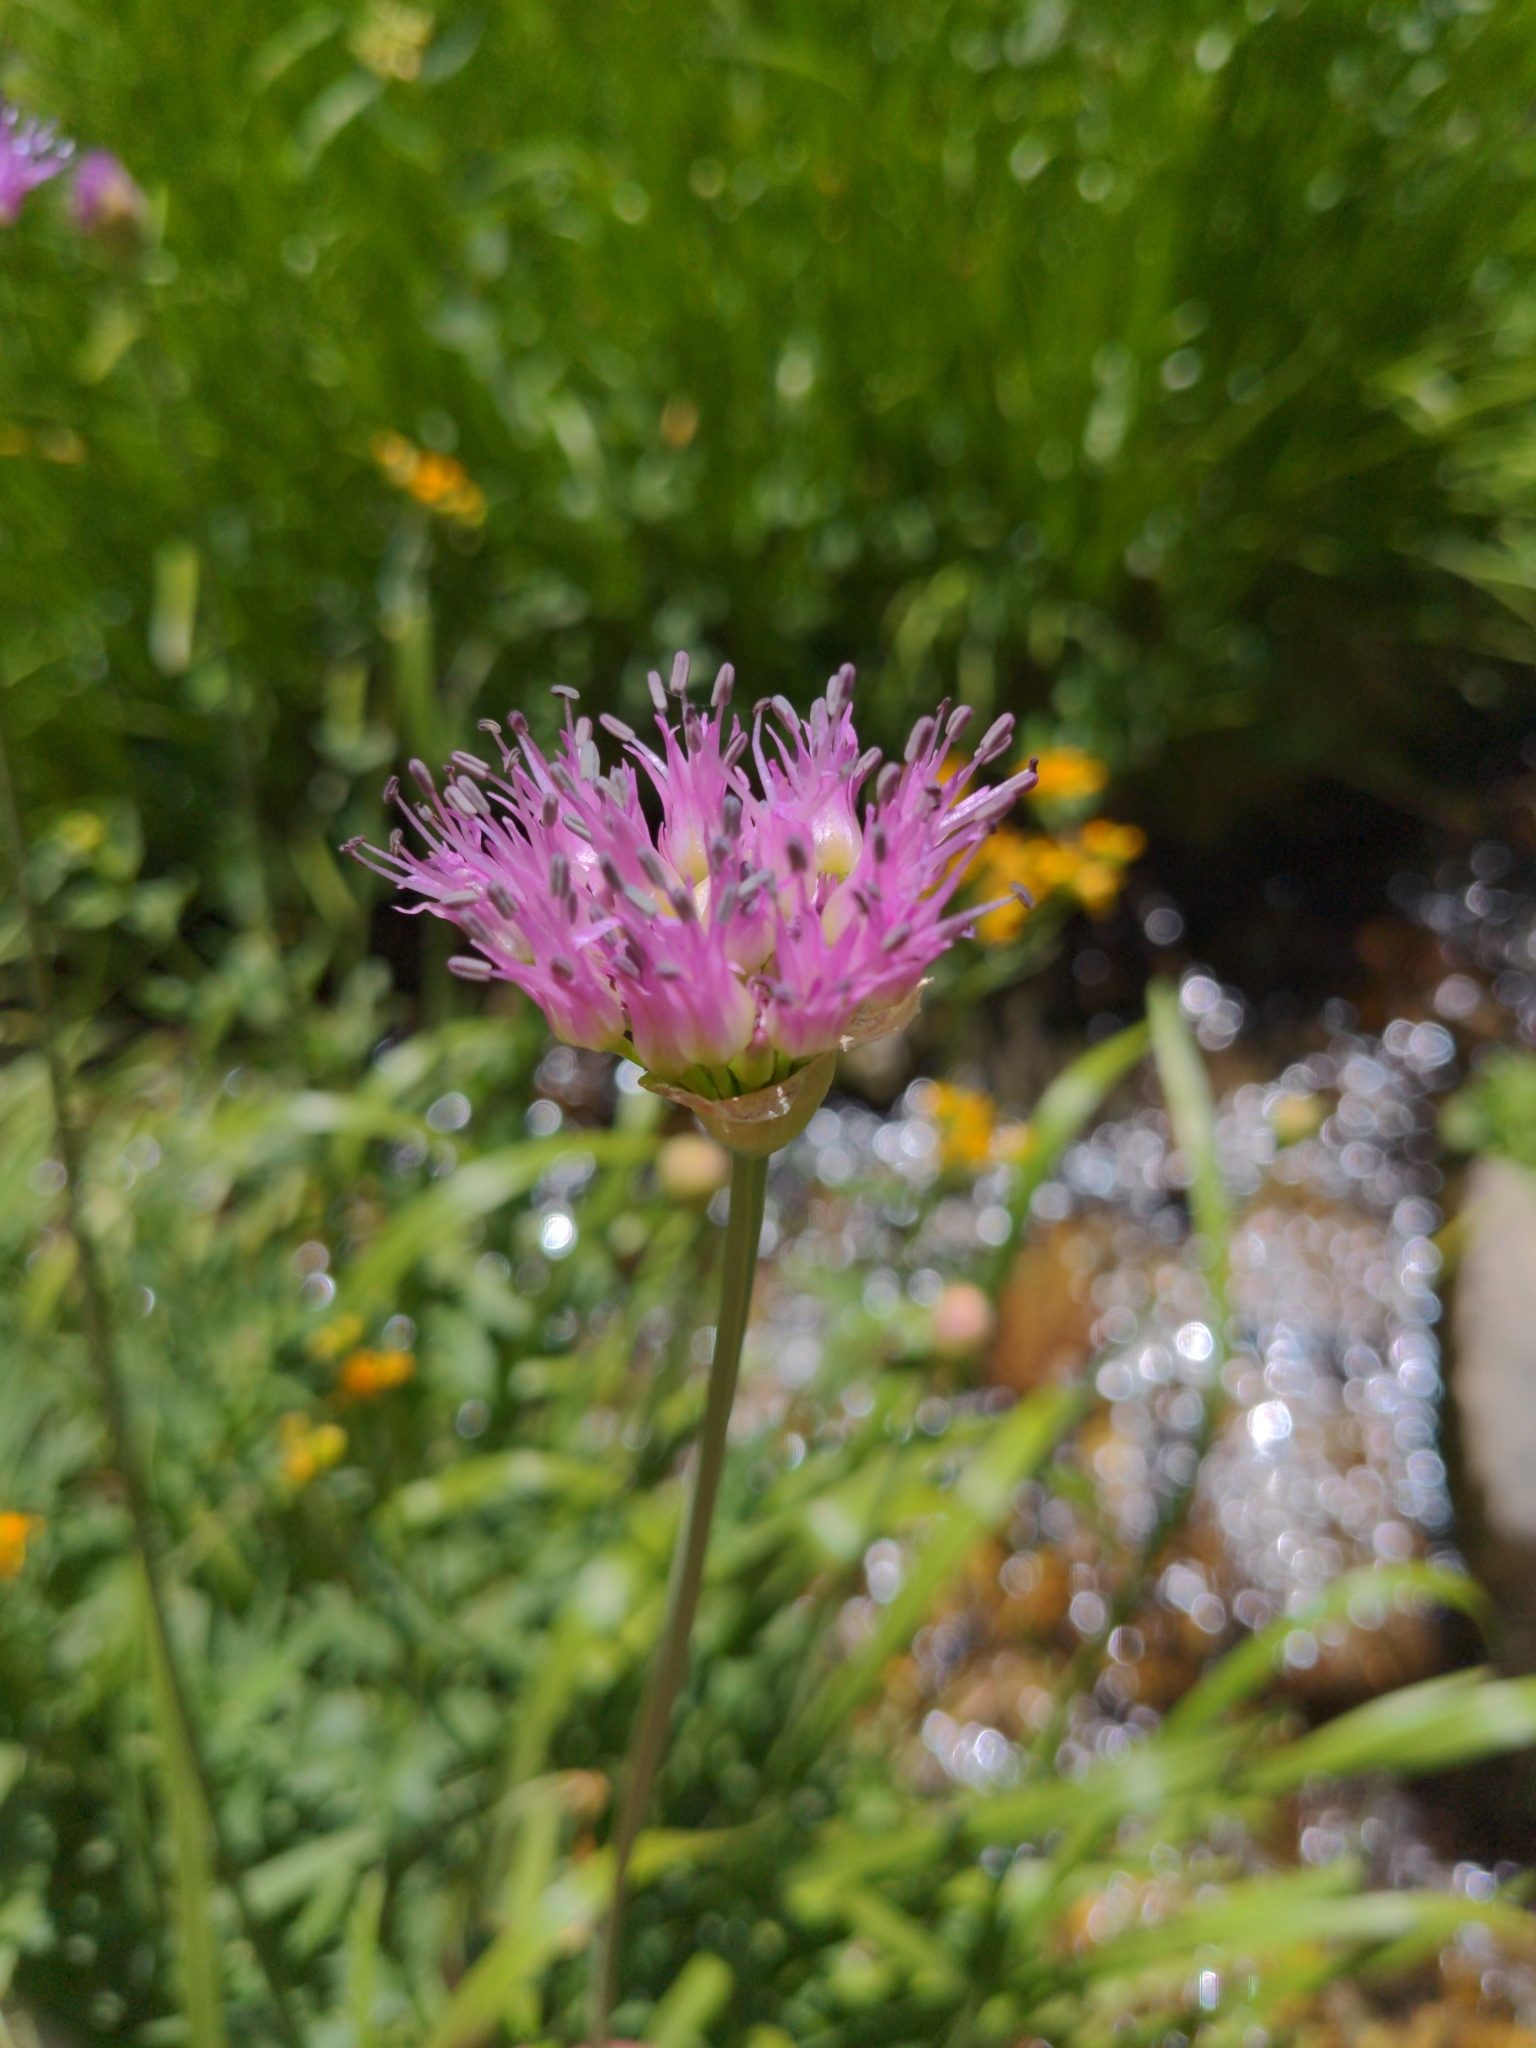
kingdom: Plantae
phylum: Tracheophyta
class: Liliopsida
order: Asparagales
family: Amaryllidaceae
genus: Allium
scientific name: Allium validum
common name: Pacific mountain onion
